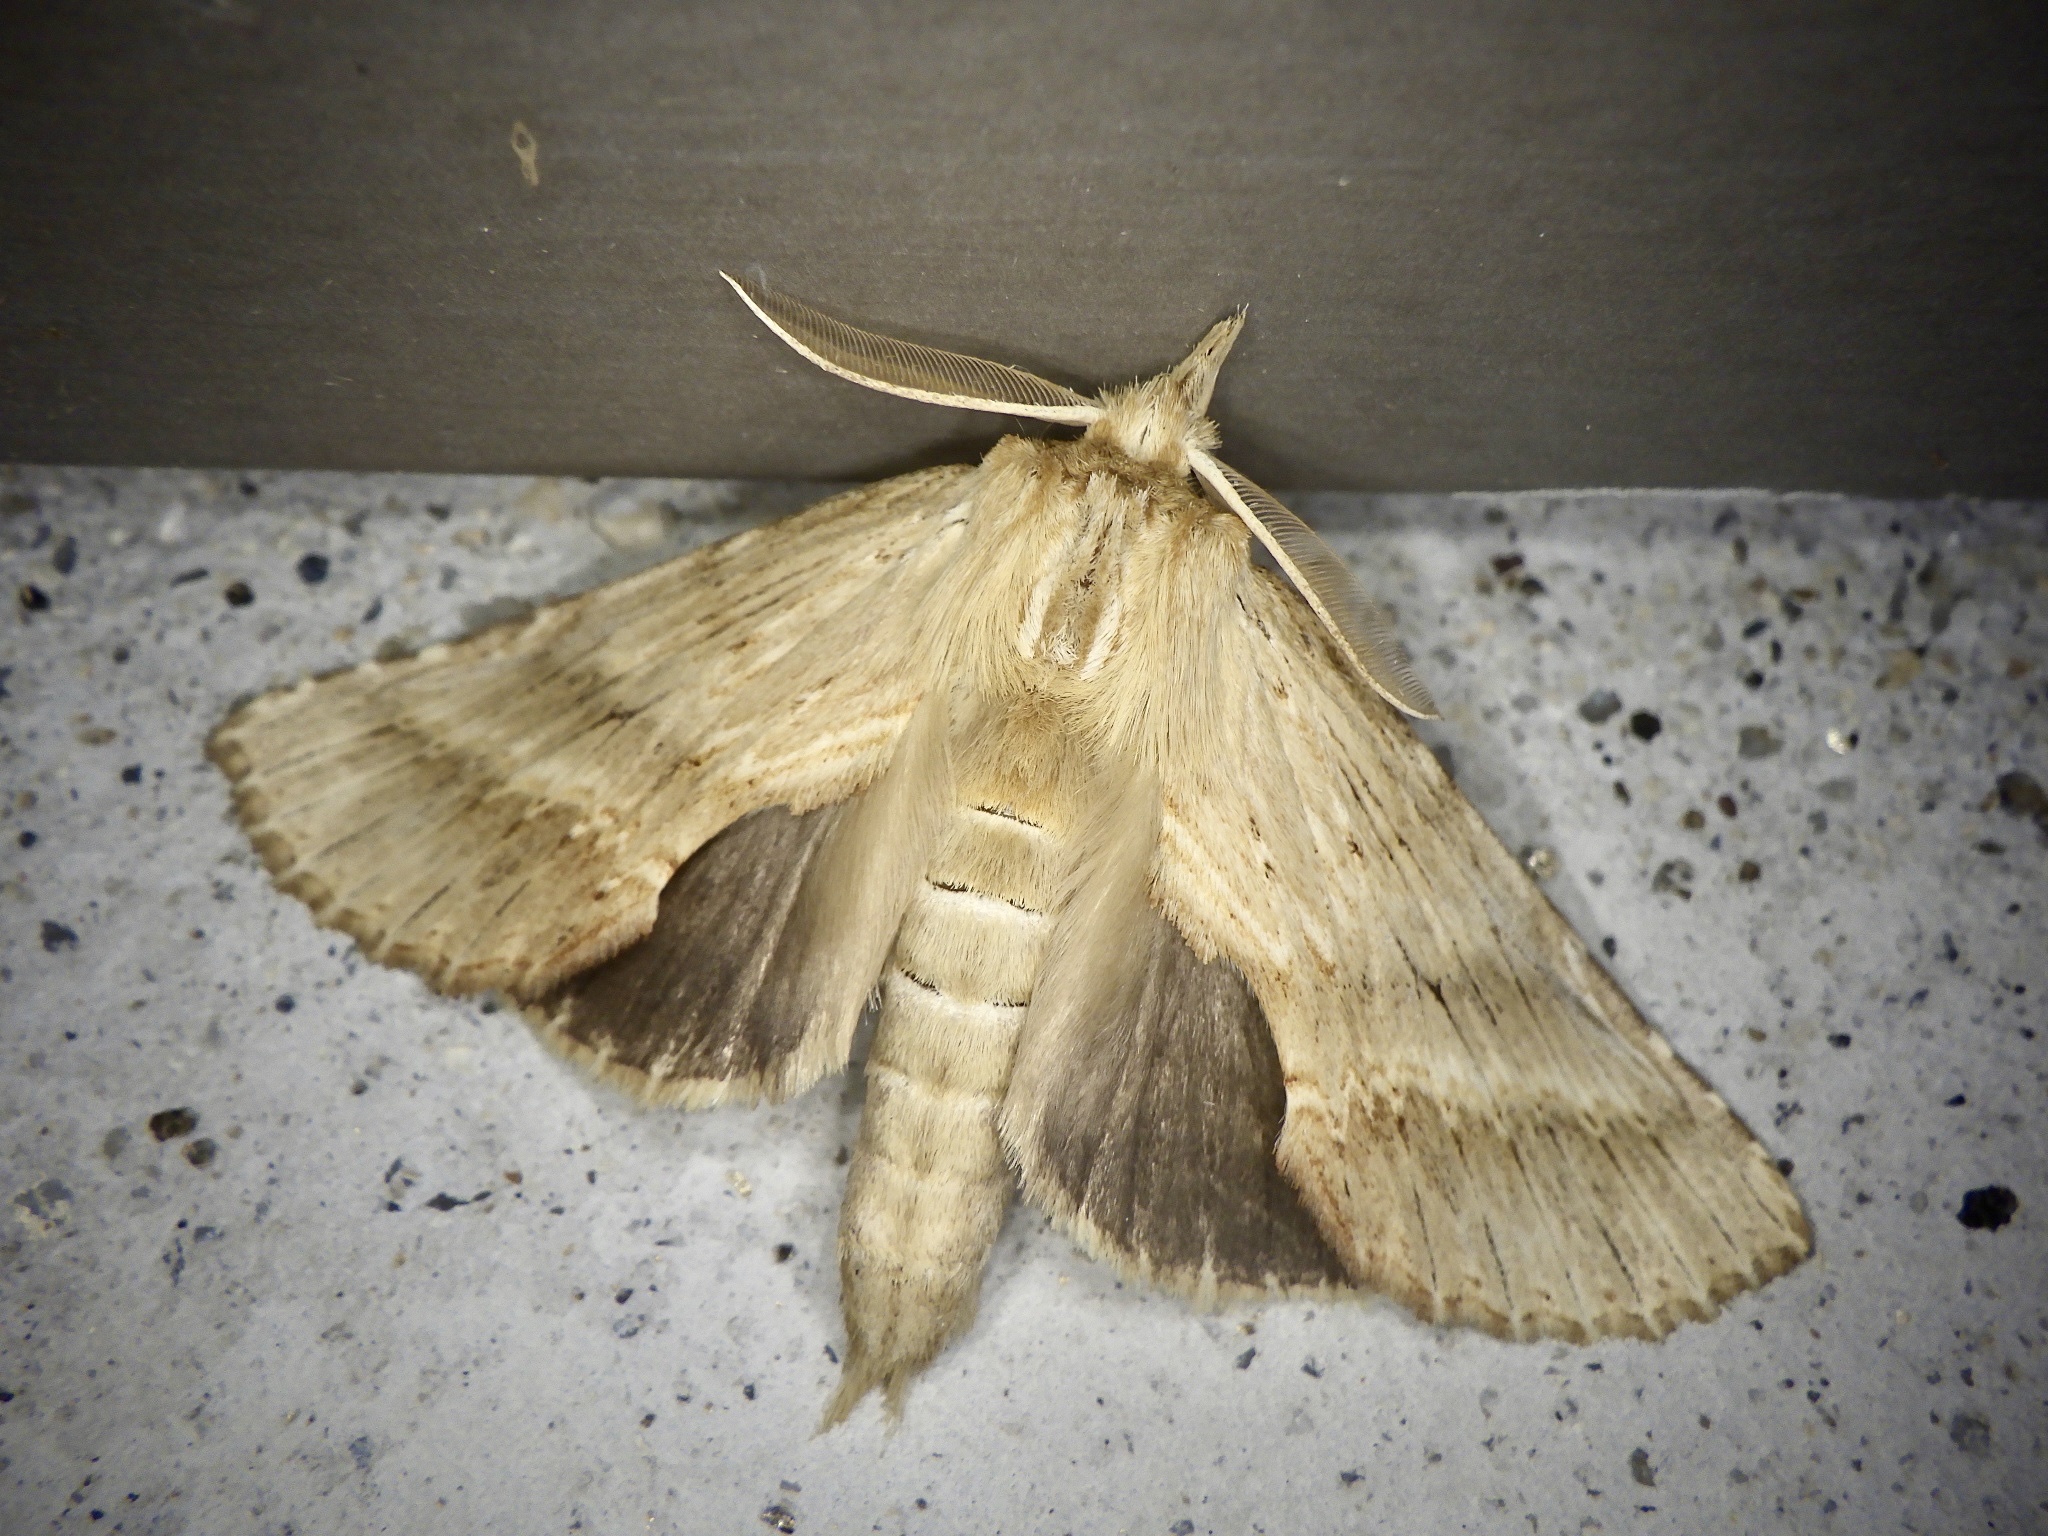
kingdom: Animalia
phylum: Arthropoda
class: Insecta
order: Lepidoptera
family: Notodontidae
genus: Pterostoma
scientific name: Pterostoma gigantina
